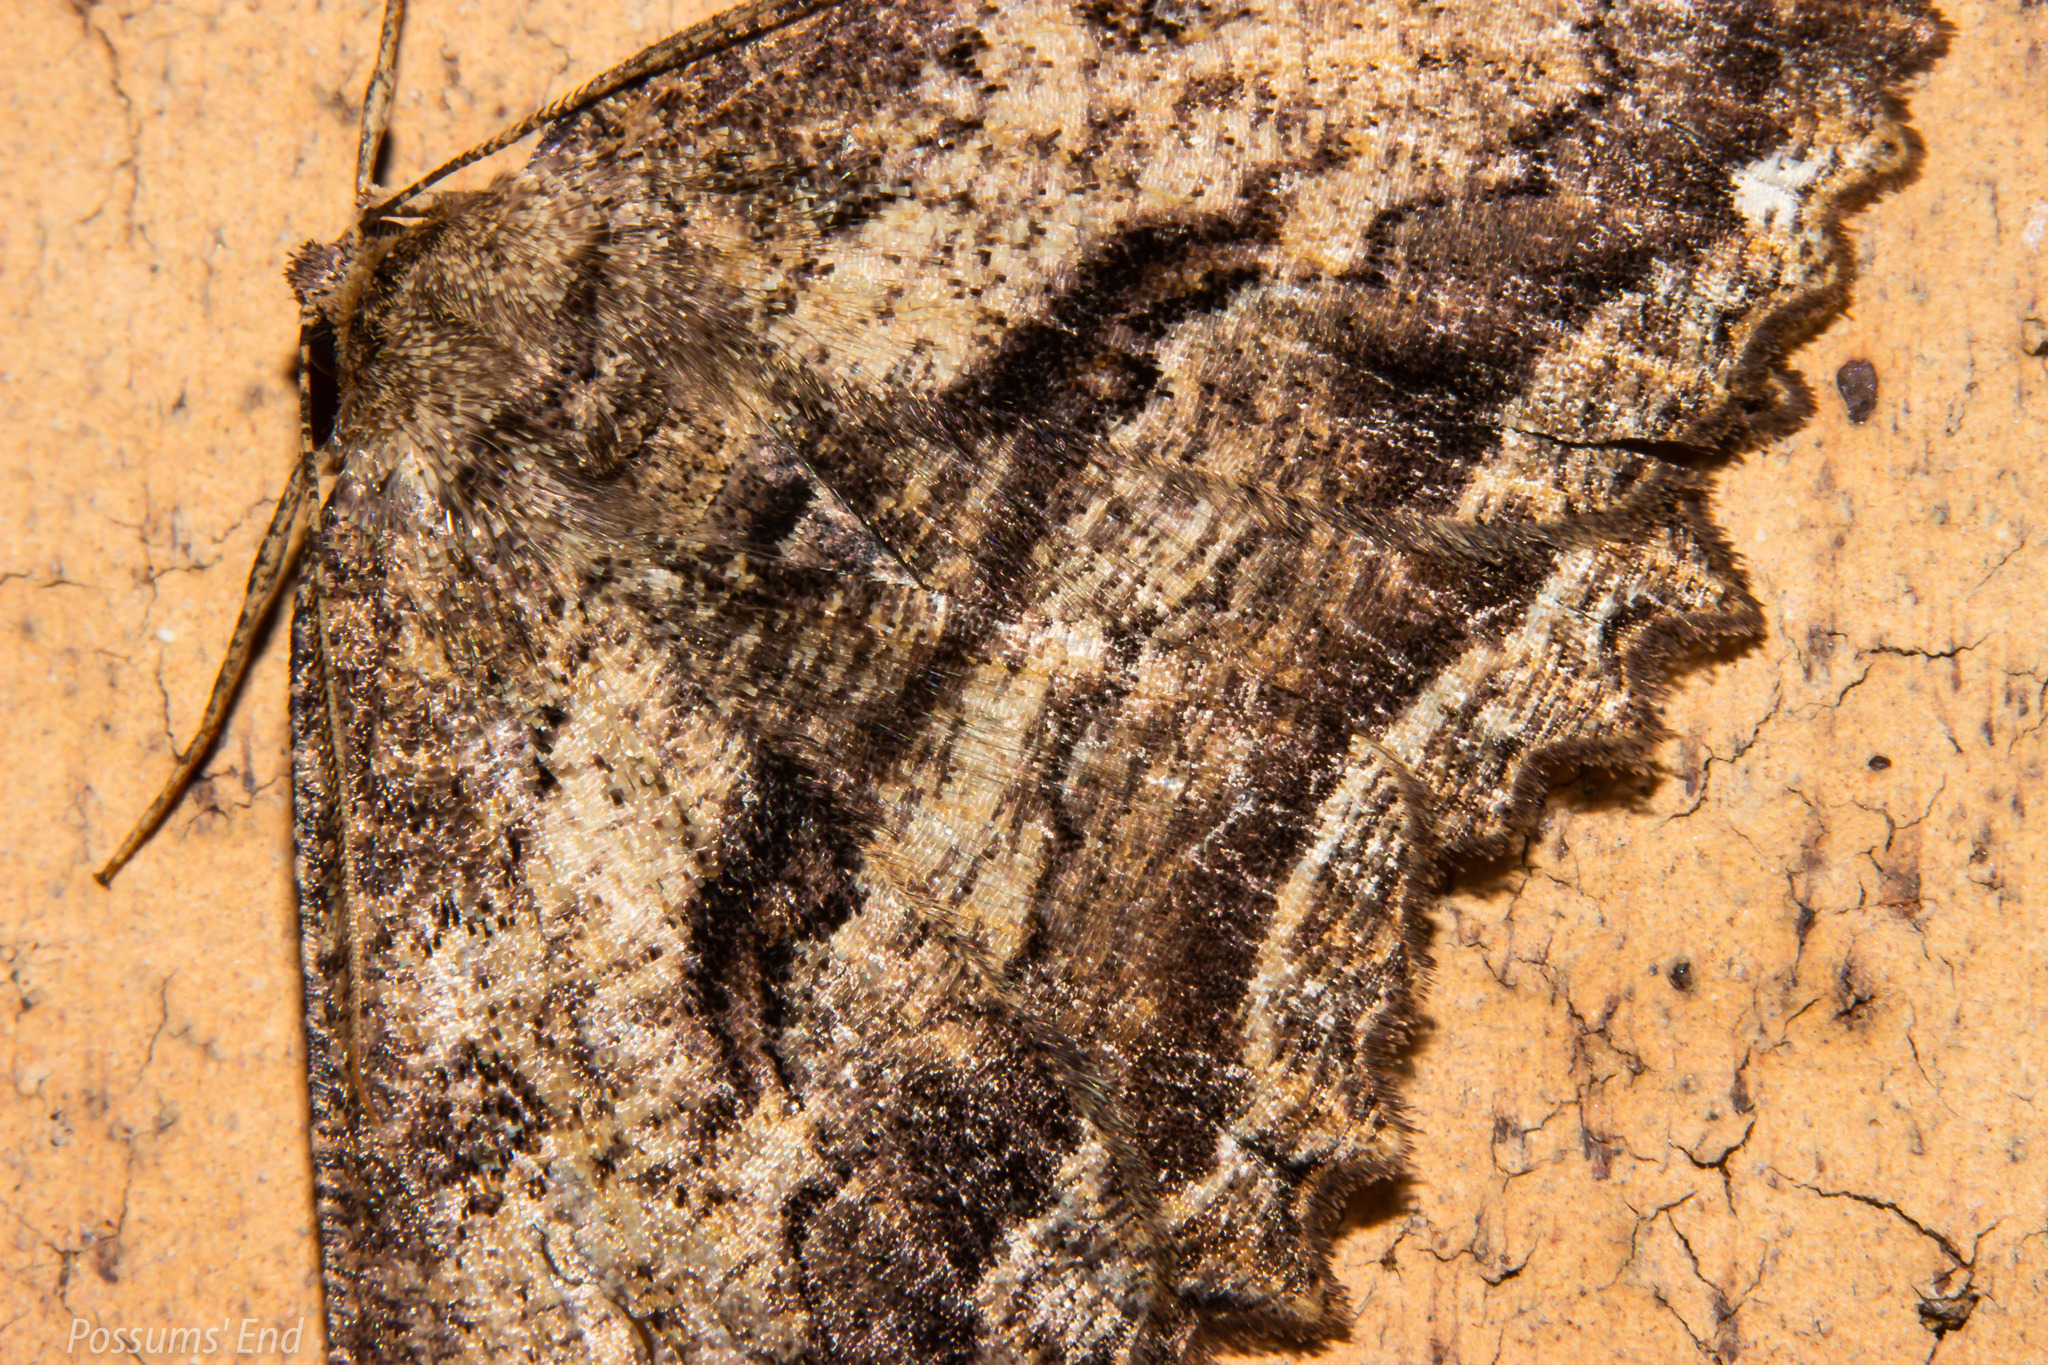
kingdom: Animalia
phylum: Arthropoda
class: Insecta
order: Lepidoptera
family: Geometridae
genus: Gellonia
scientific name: Gellonia pannularia
